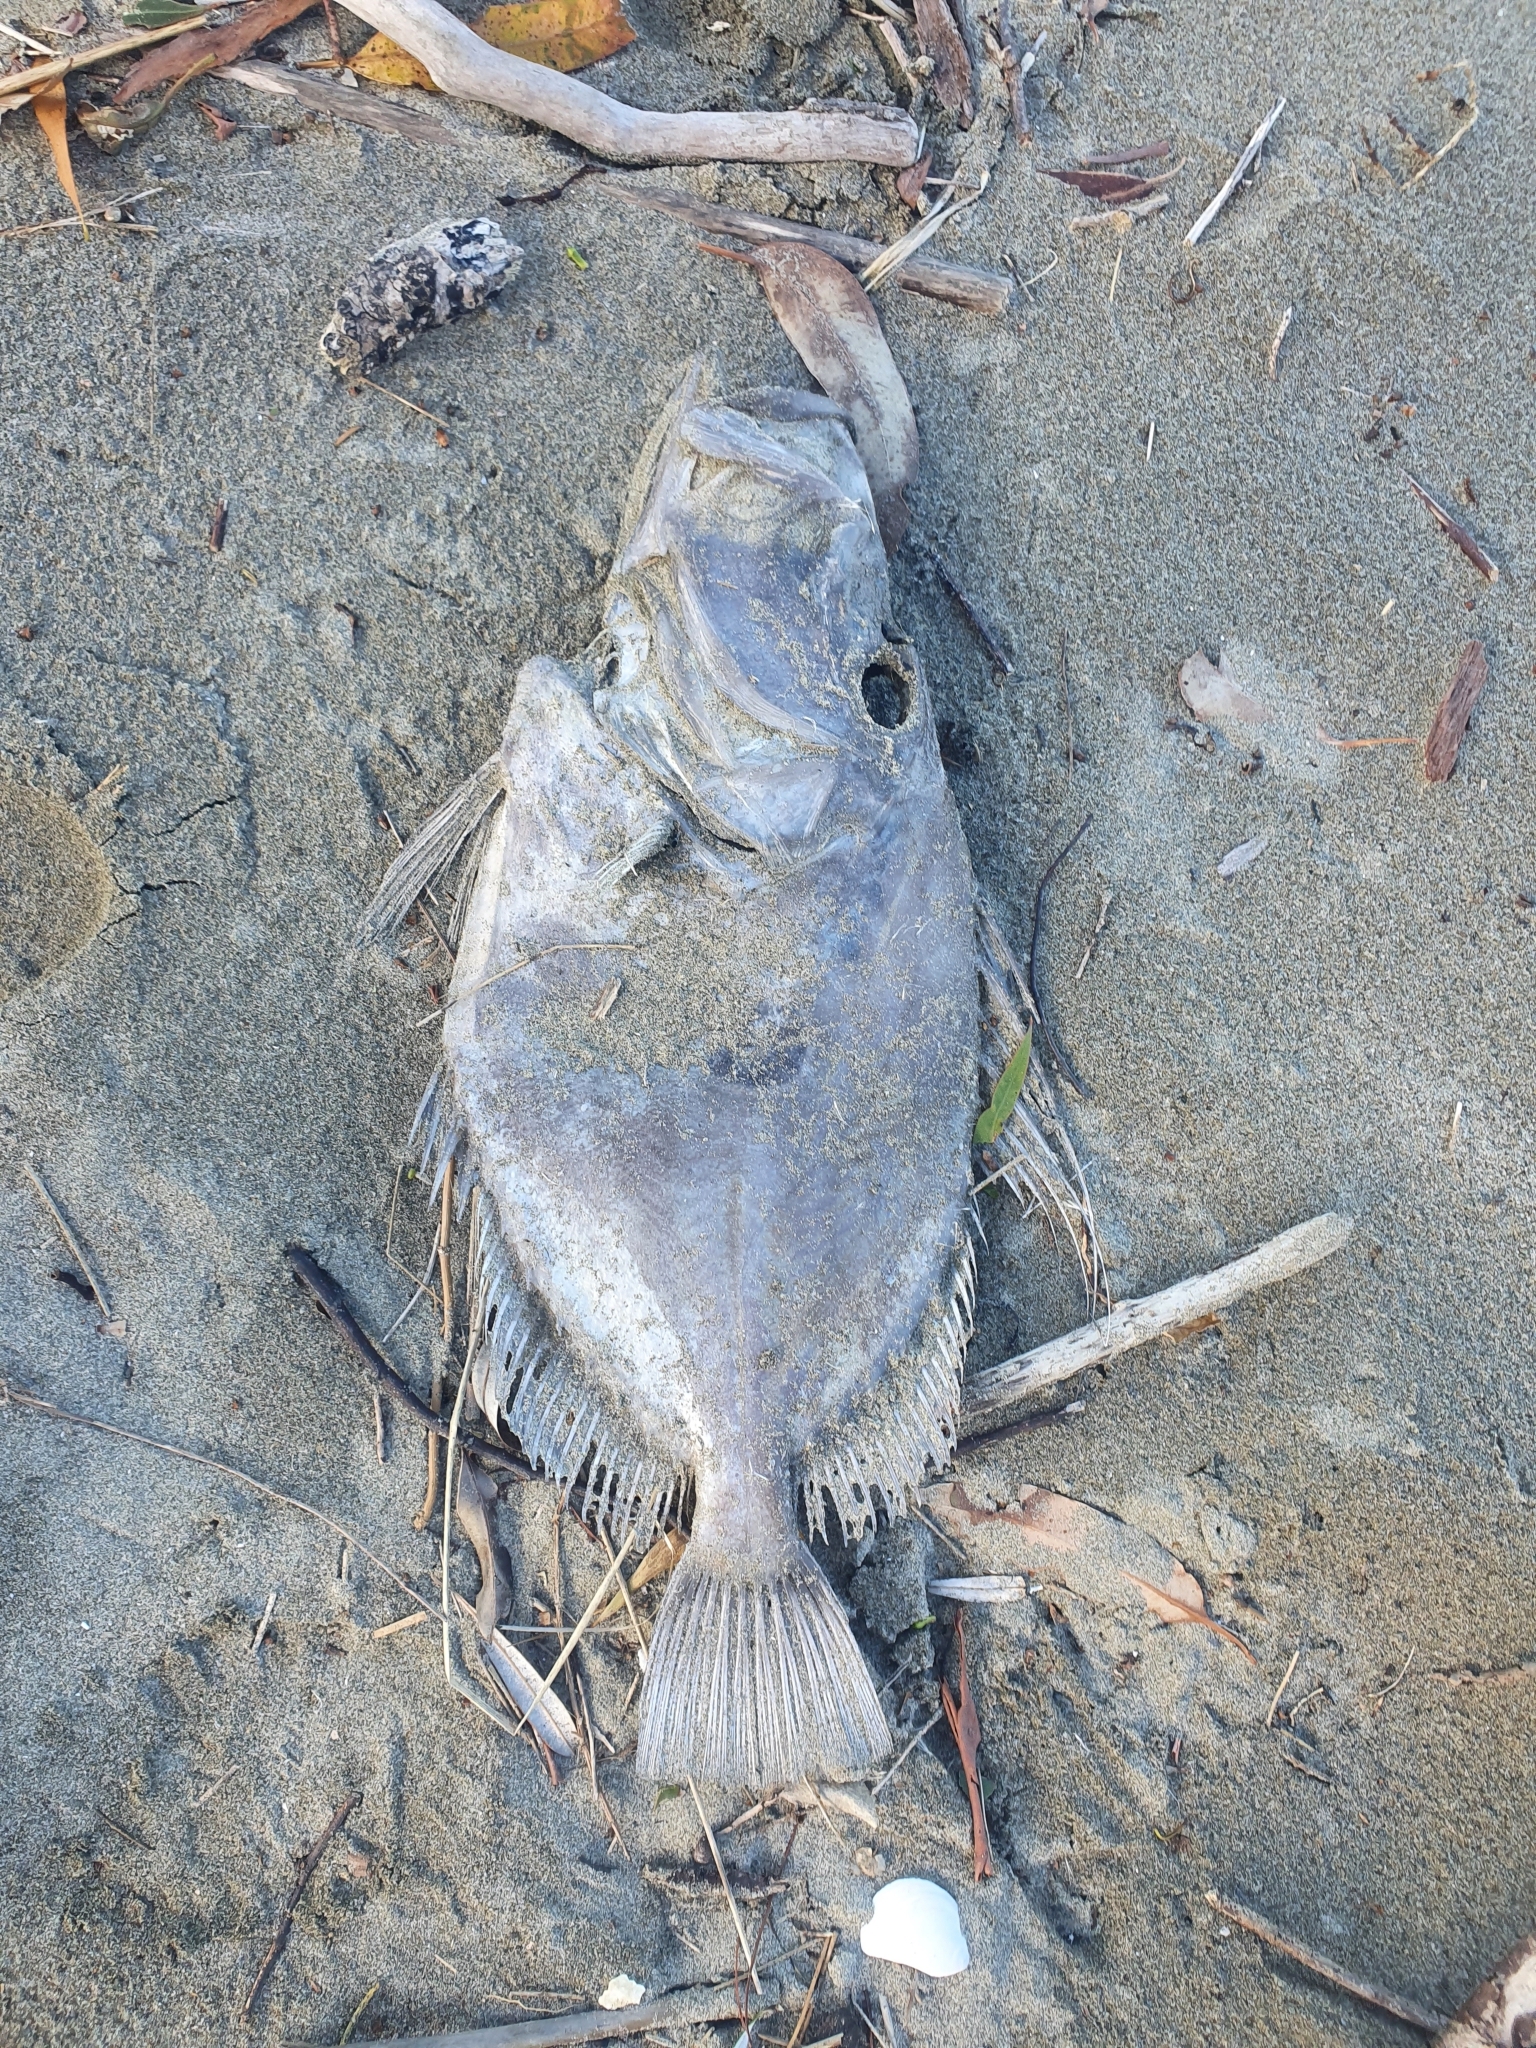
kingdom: Animalia
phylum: Chordata
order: Zeiformes
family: Zeidae
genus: Zeus
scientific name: Zeus faber
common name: John dory
